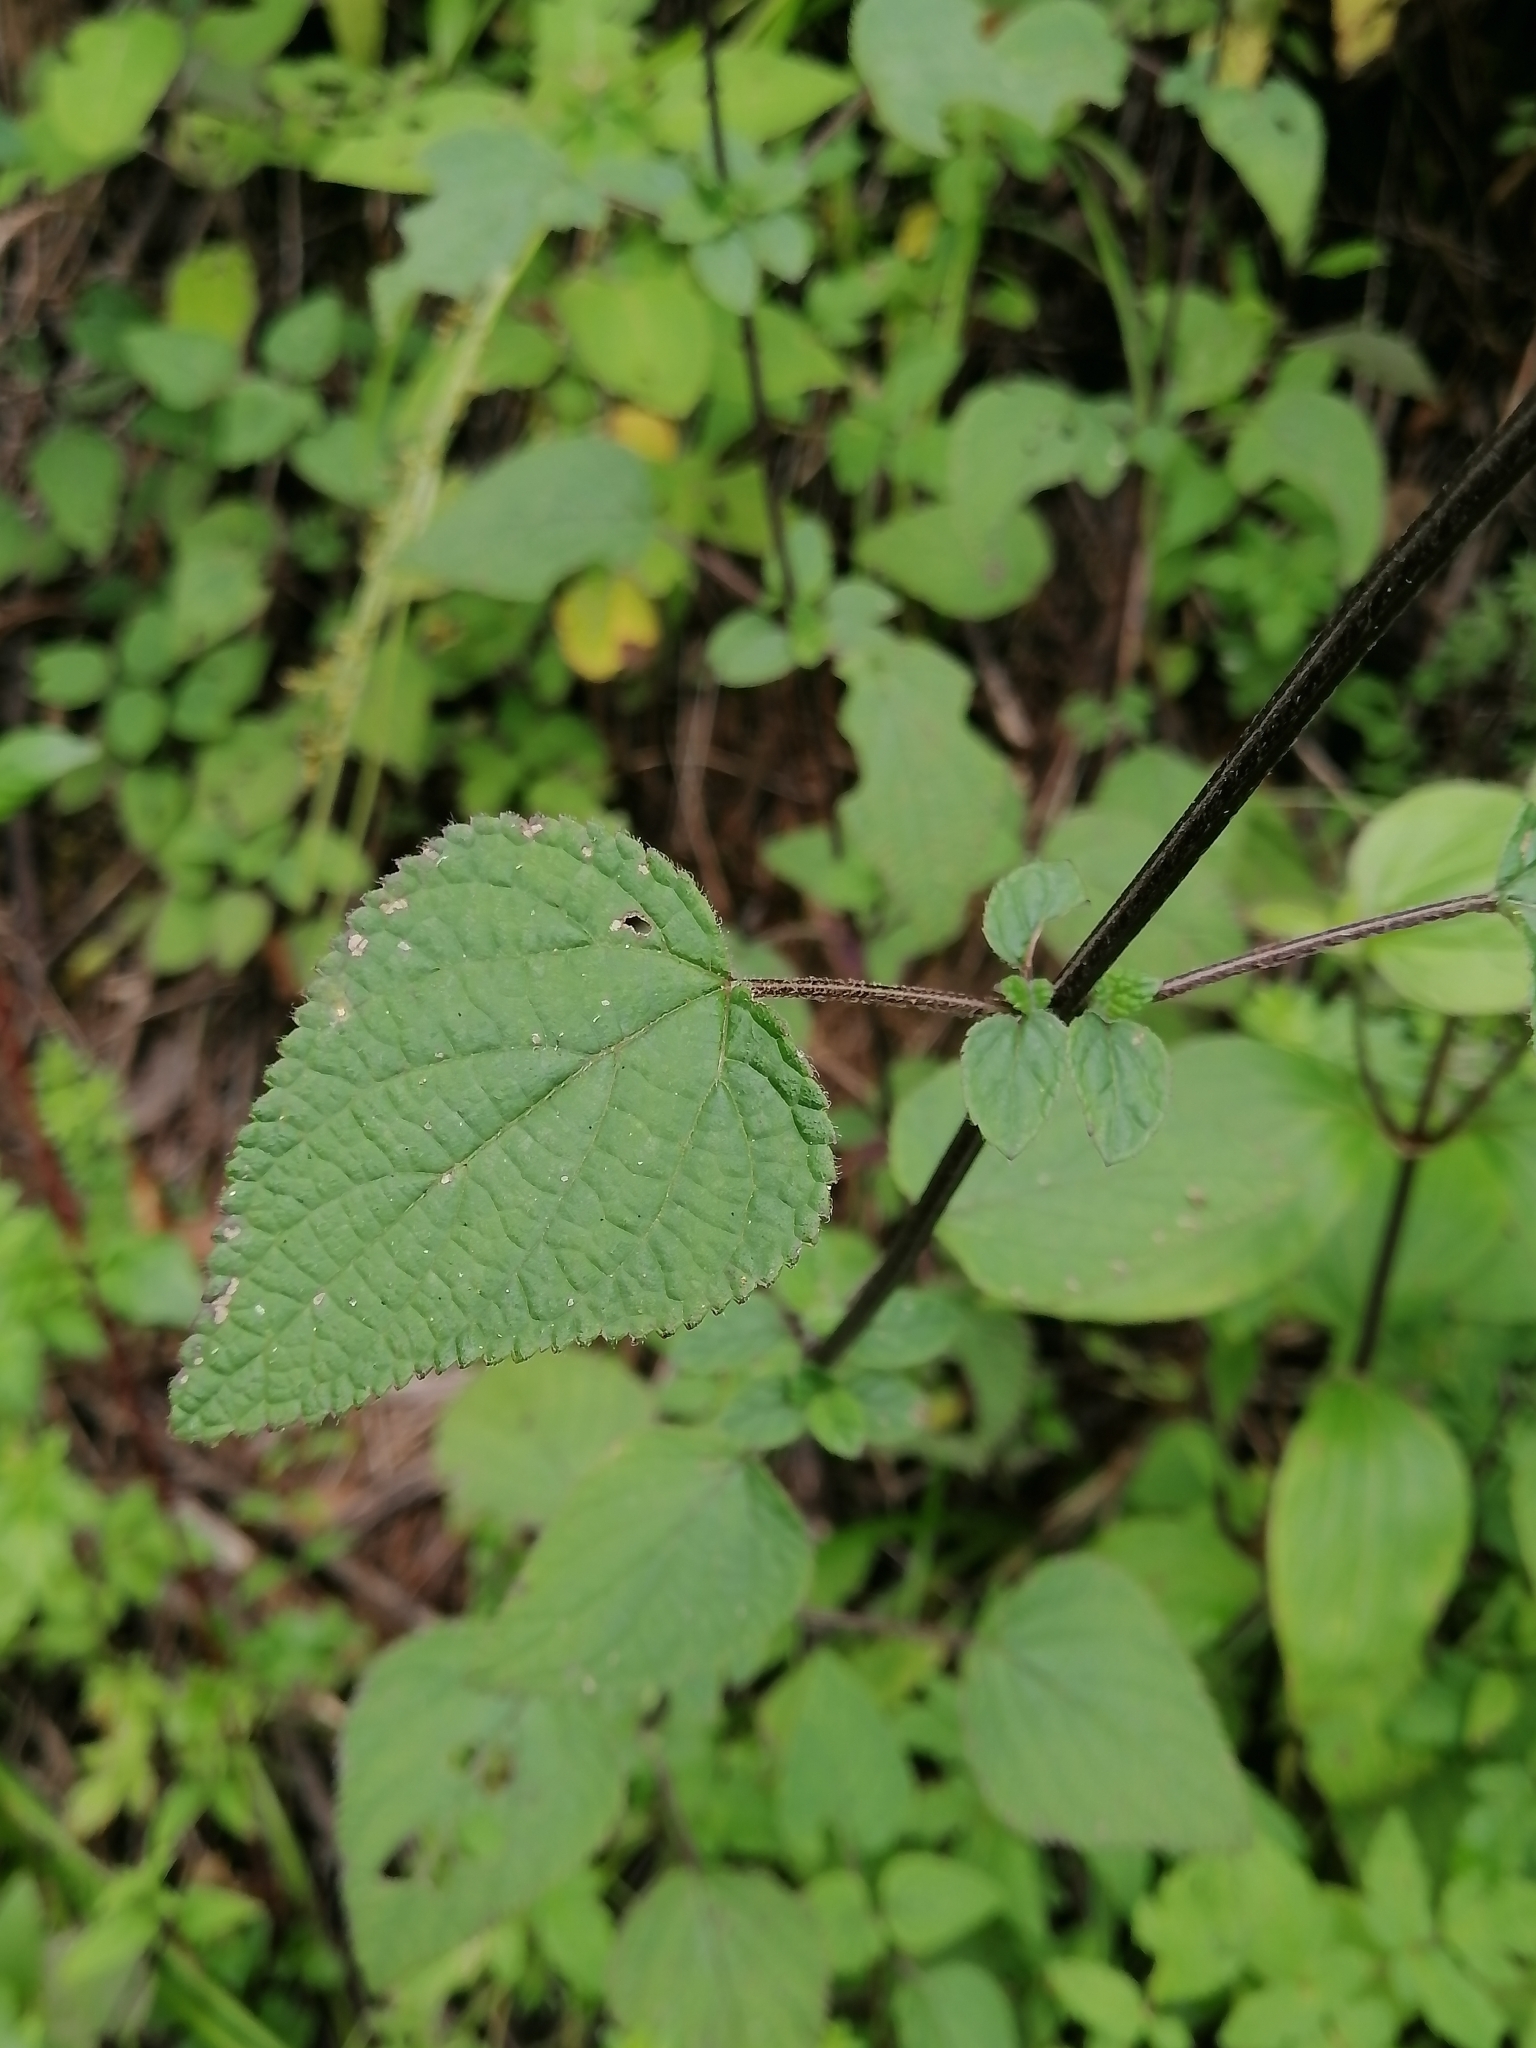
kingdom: Plantae
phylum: Tracheophyta
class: Magnoliopsida
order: Lamiales
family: Lamiaceae
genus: Salvia
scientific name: Salvia mocinoi
